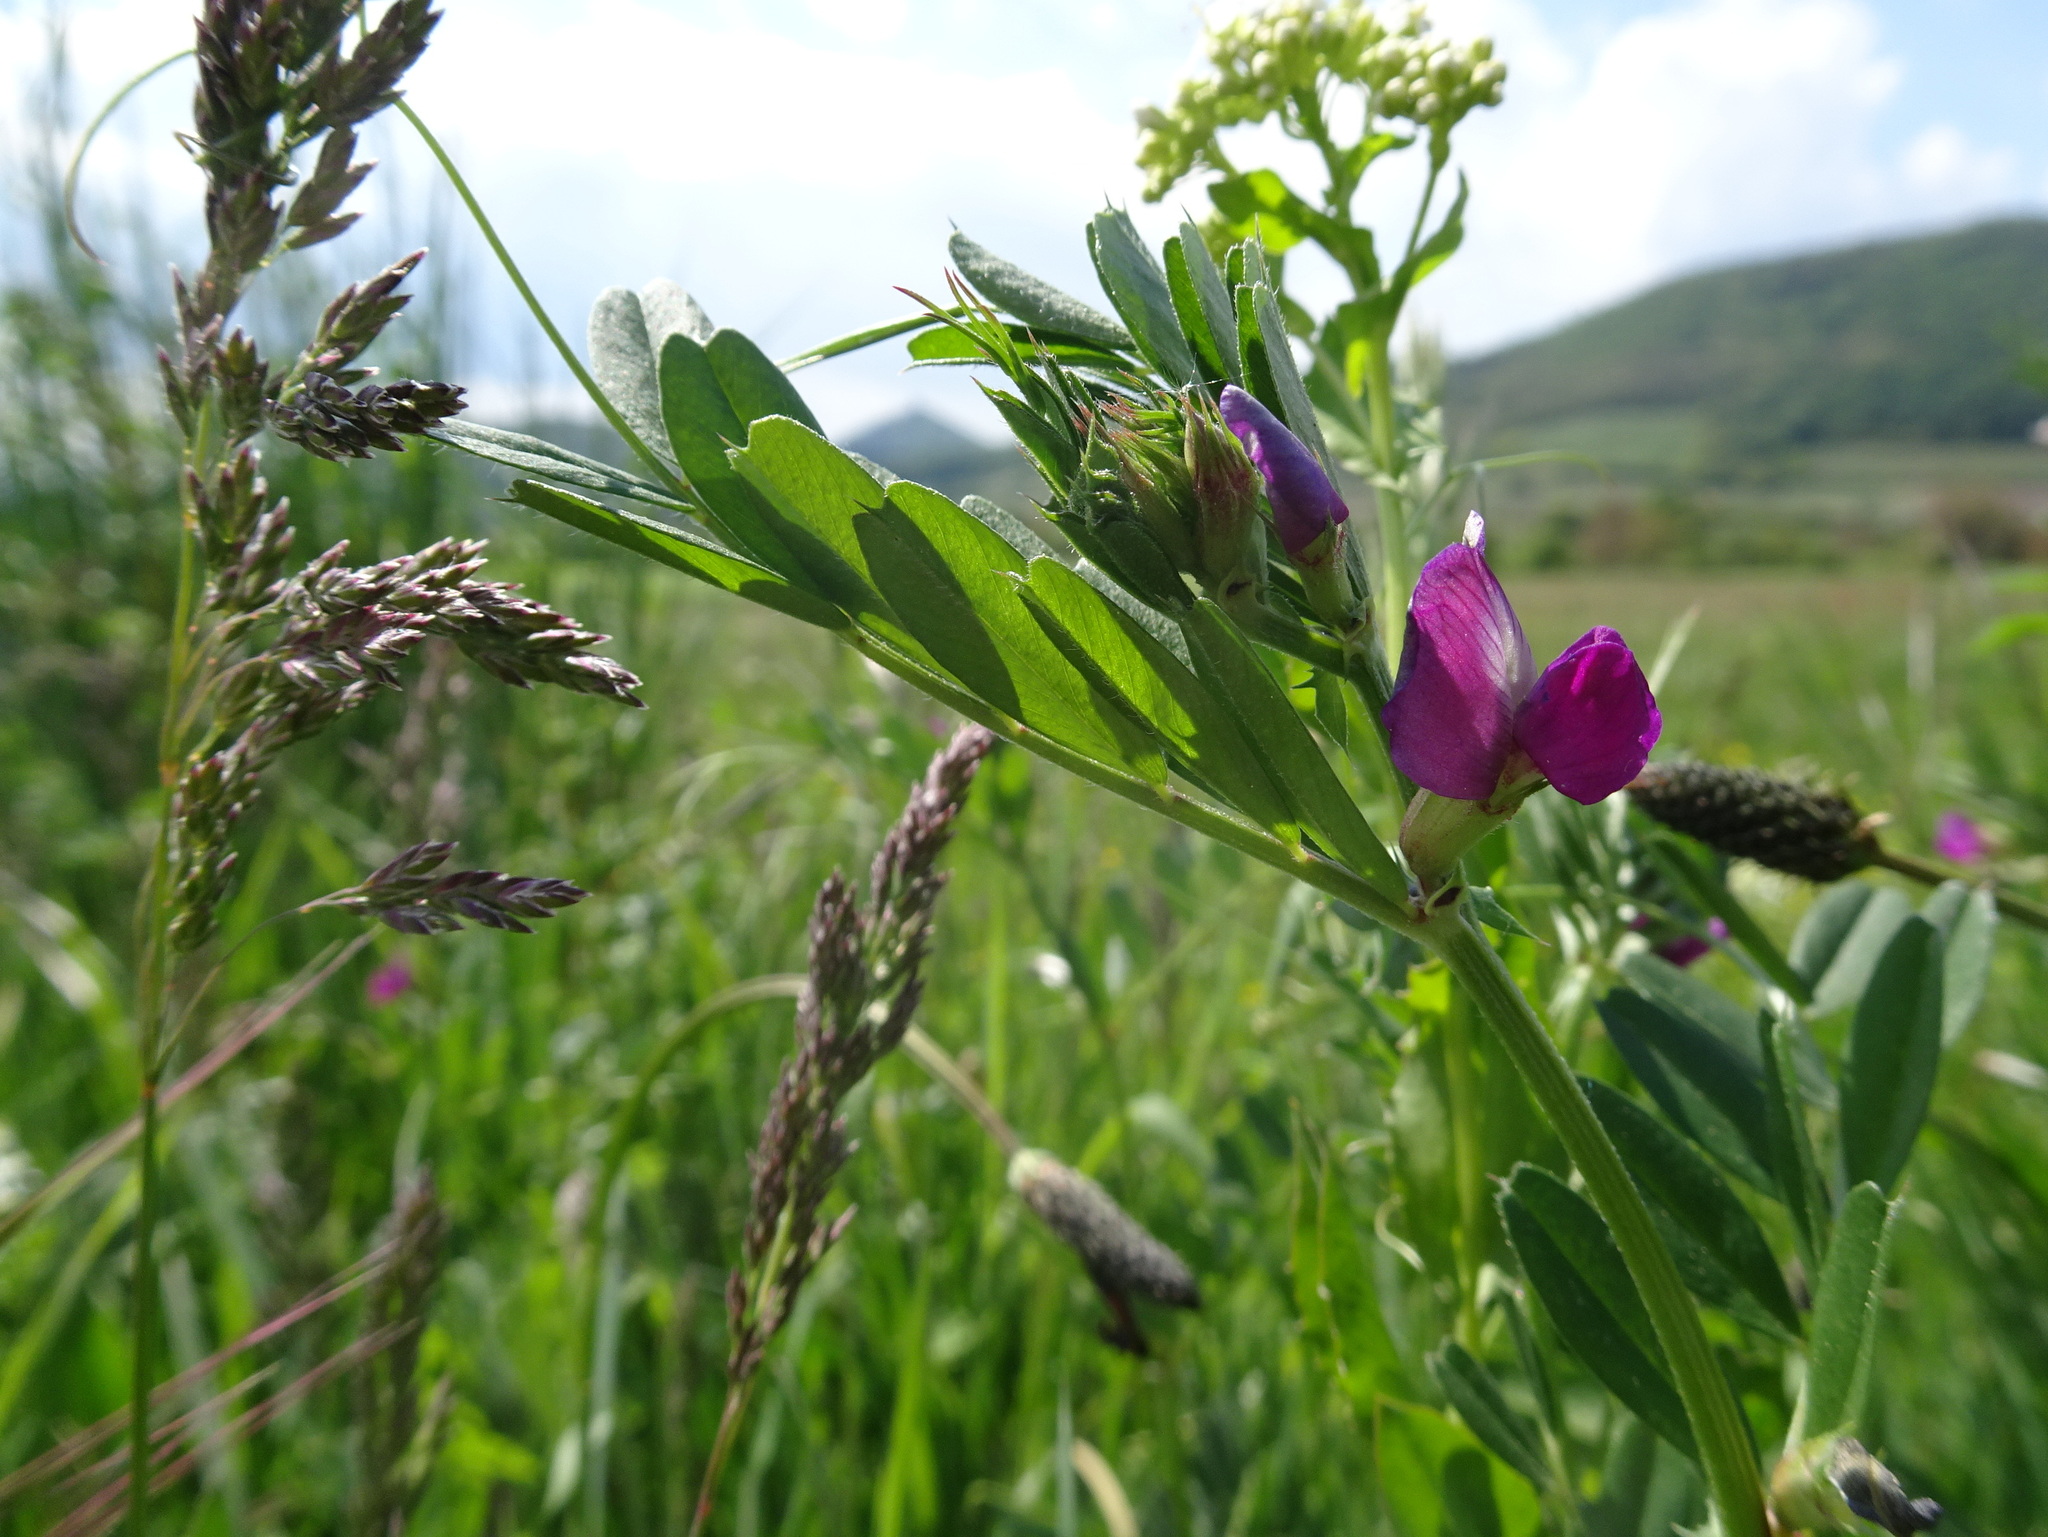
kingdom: Plantae
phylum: Tracheophyta
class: Magnoliopsida
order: Fabales
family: Fabaceae
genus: Vicia
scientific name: Vicia sativa
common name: Garden vetch
